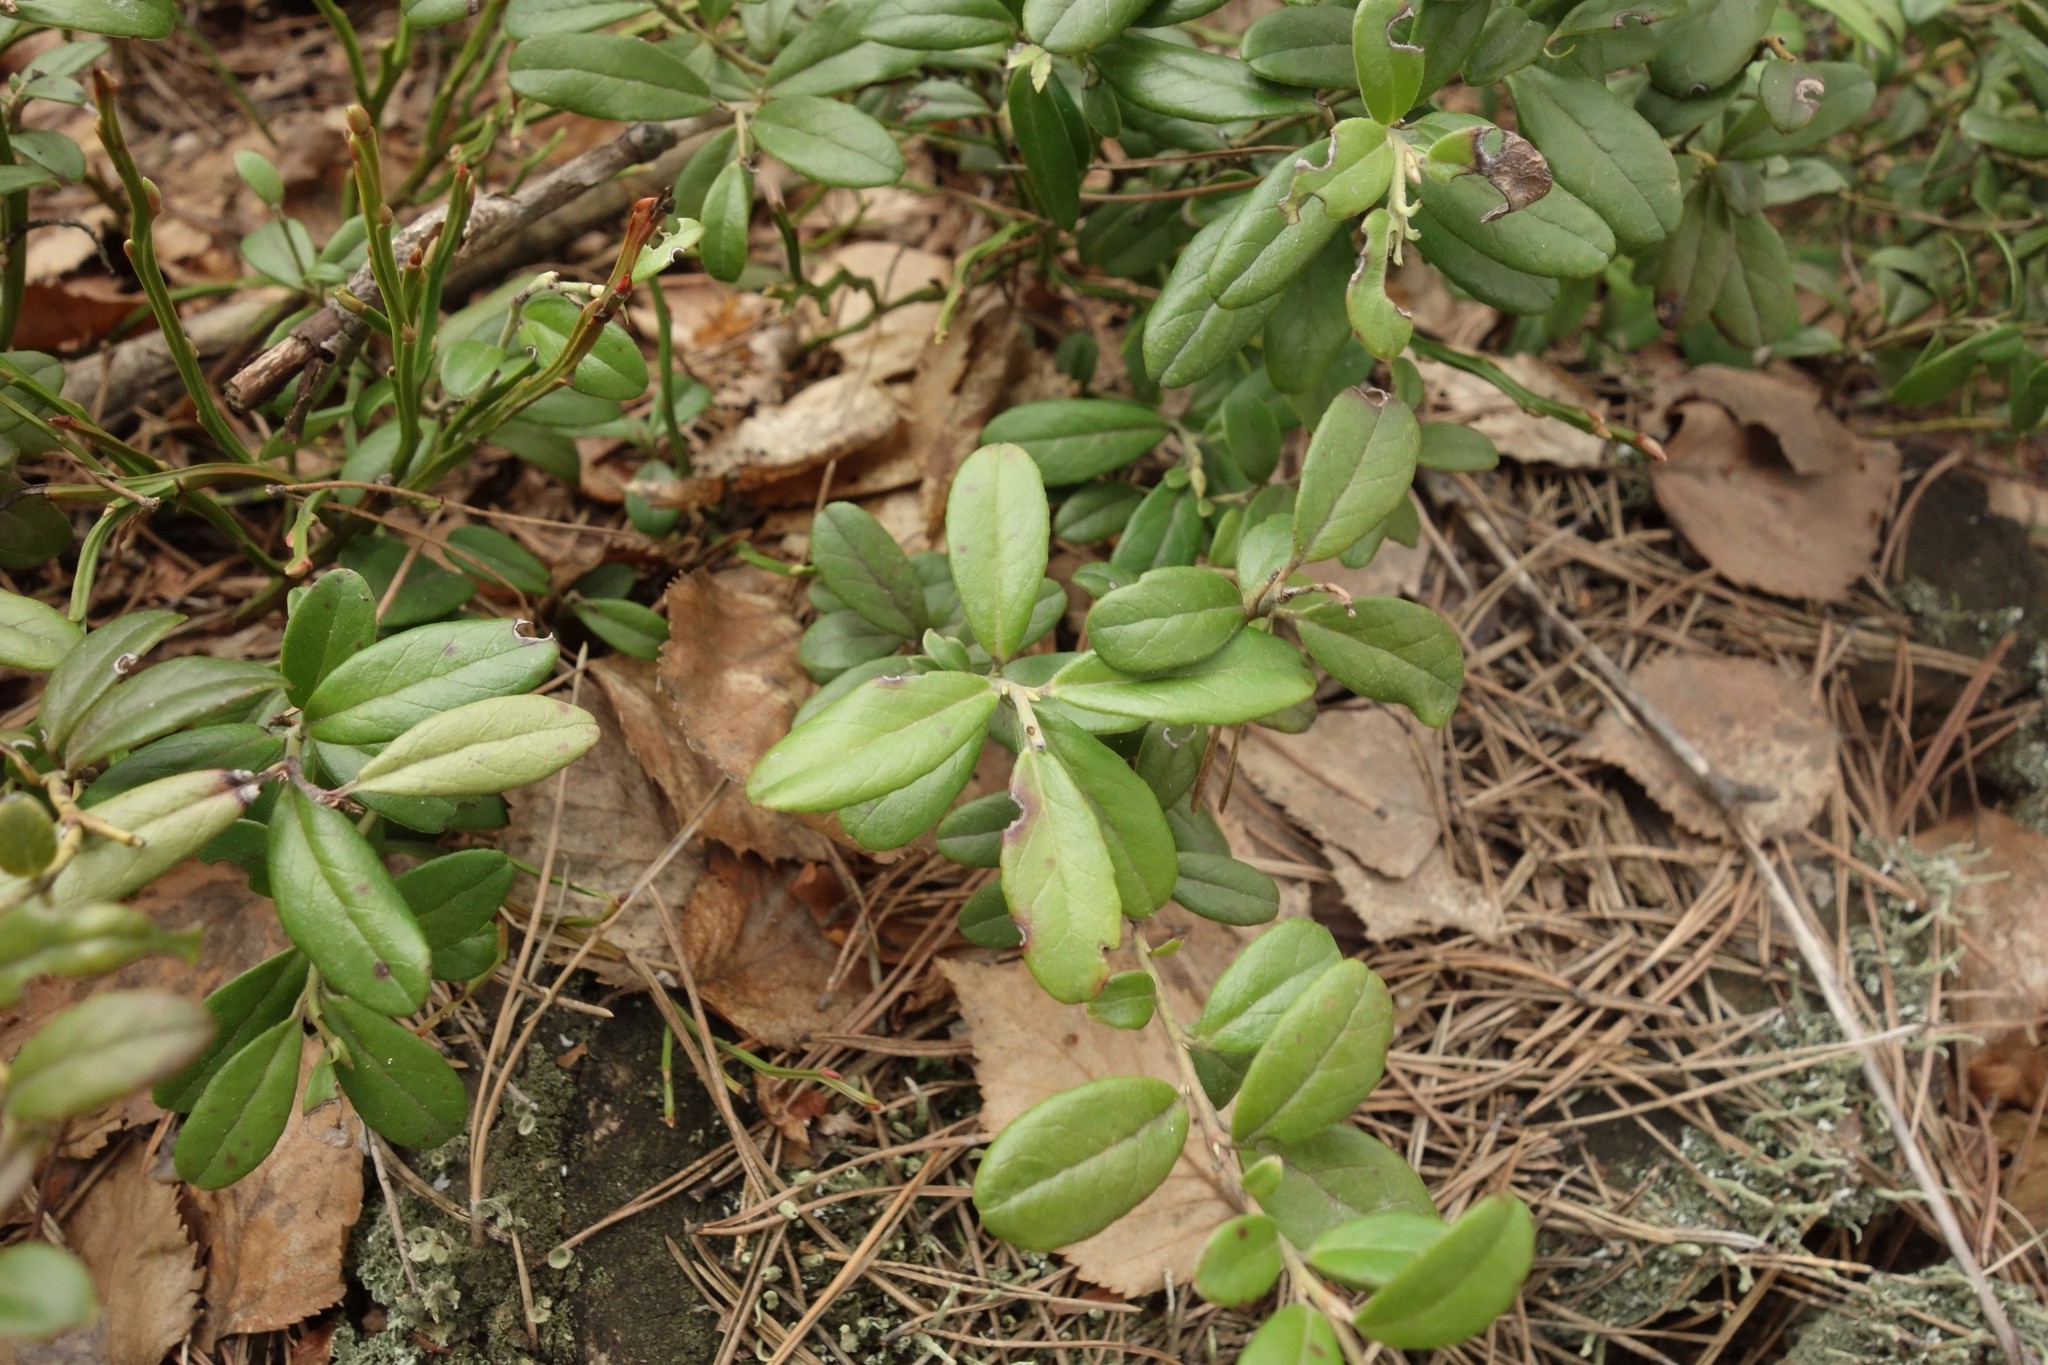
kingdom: Plantae
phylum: Tracheophyta
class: Magnoliopsida
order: Ericales
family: Ericaceae
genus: Vaccinium
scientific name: Vaccinium vitis-idaea
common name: Cowberry
